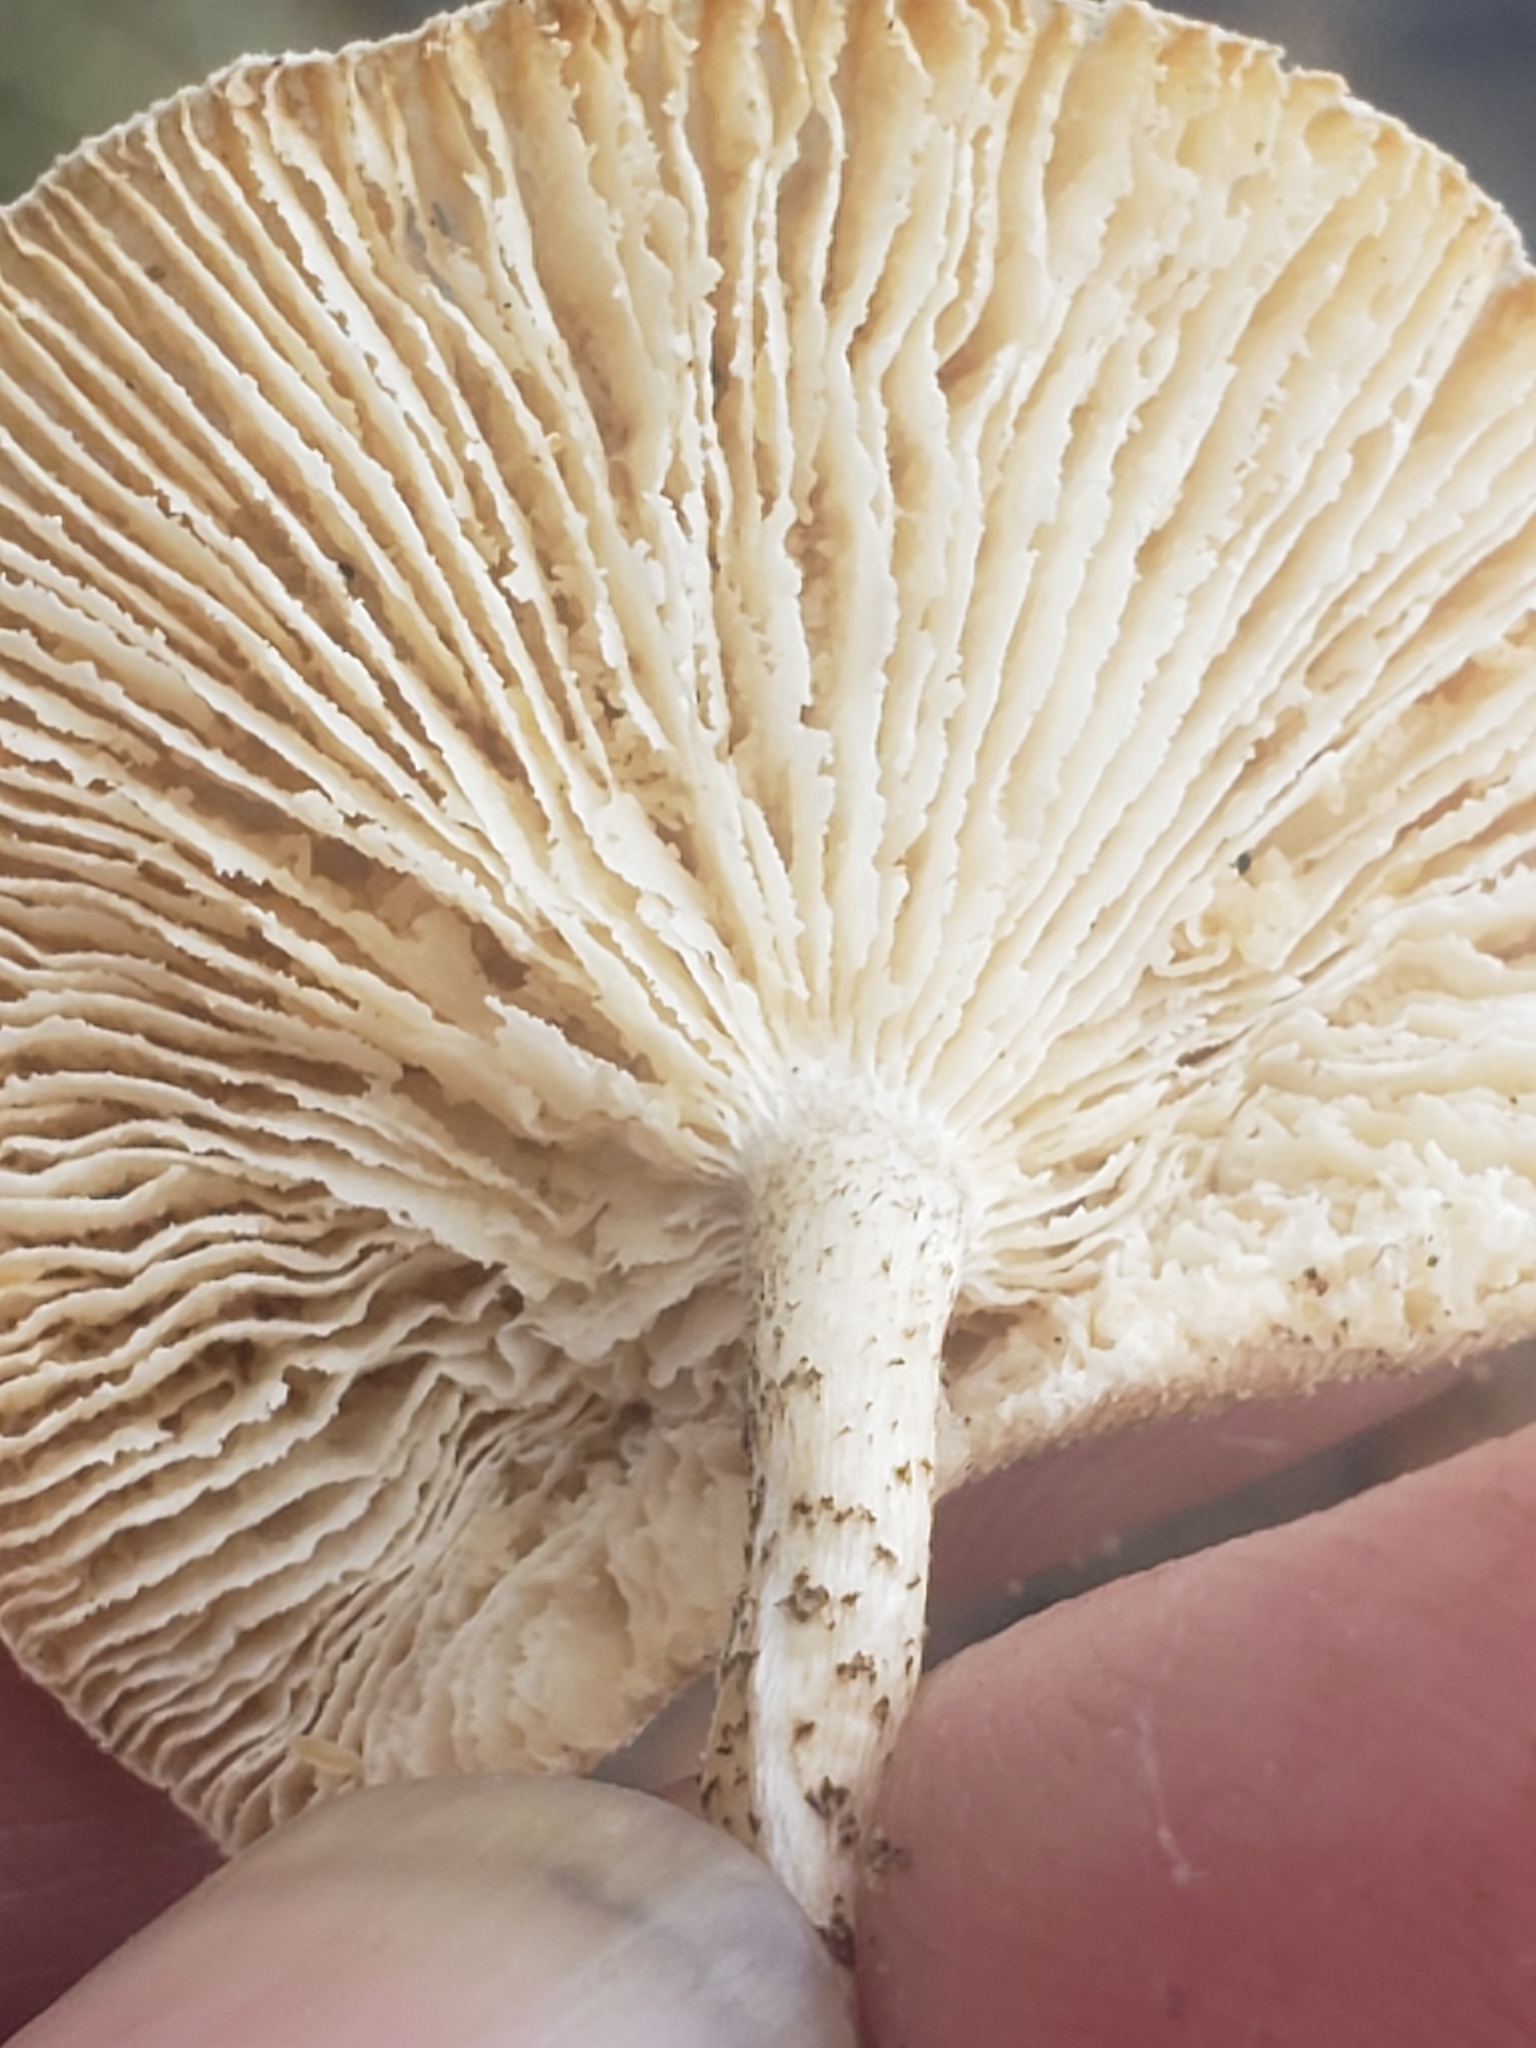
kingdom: Fungi
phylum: Basidiomycota
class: Agaricomycetes
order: Polyporales
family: Polyporaceae
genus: Lentinus
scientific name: Lentinus tigrinus
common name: Tiger sawgill
